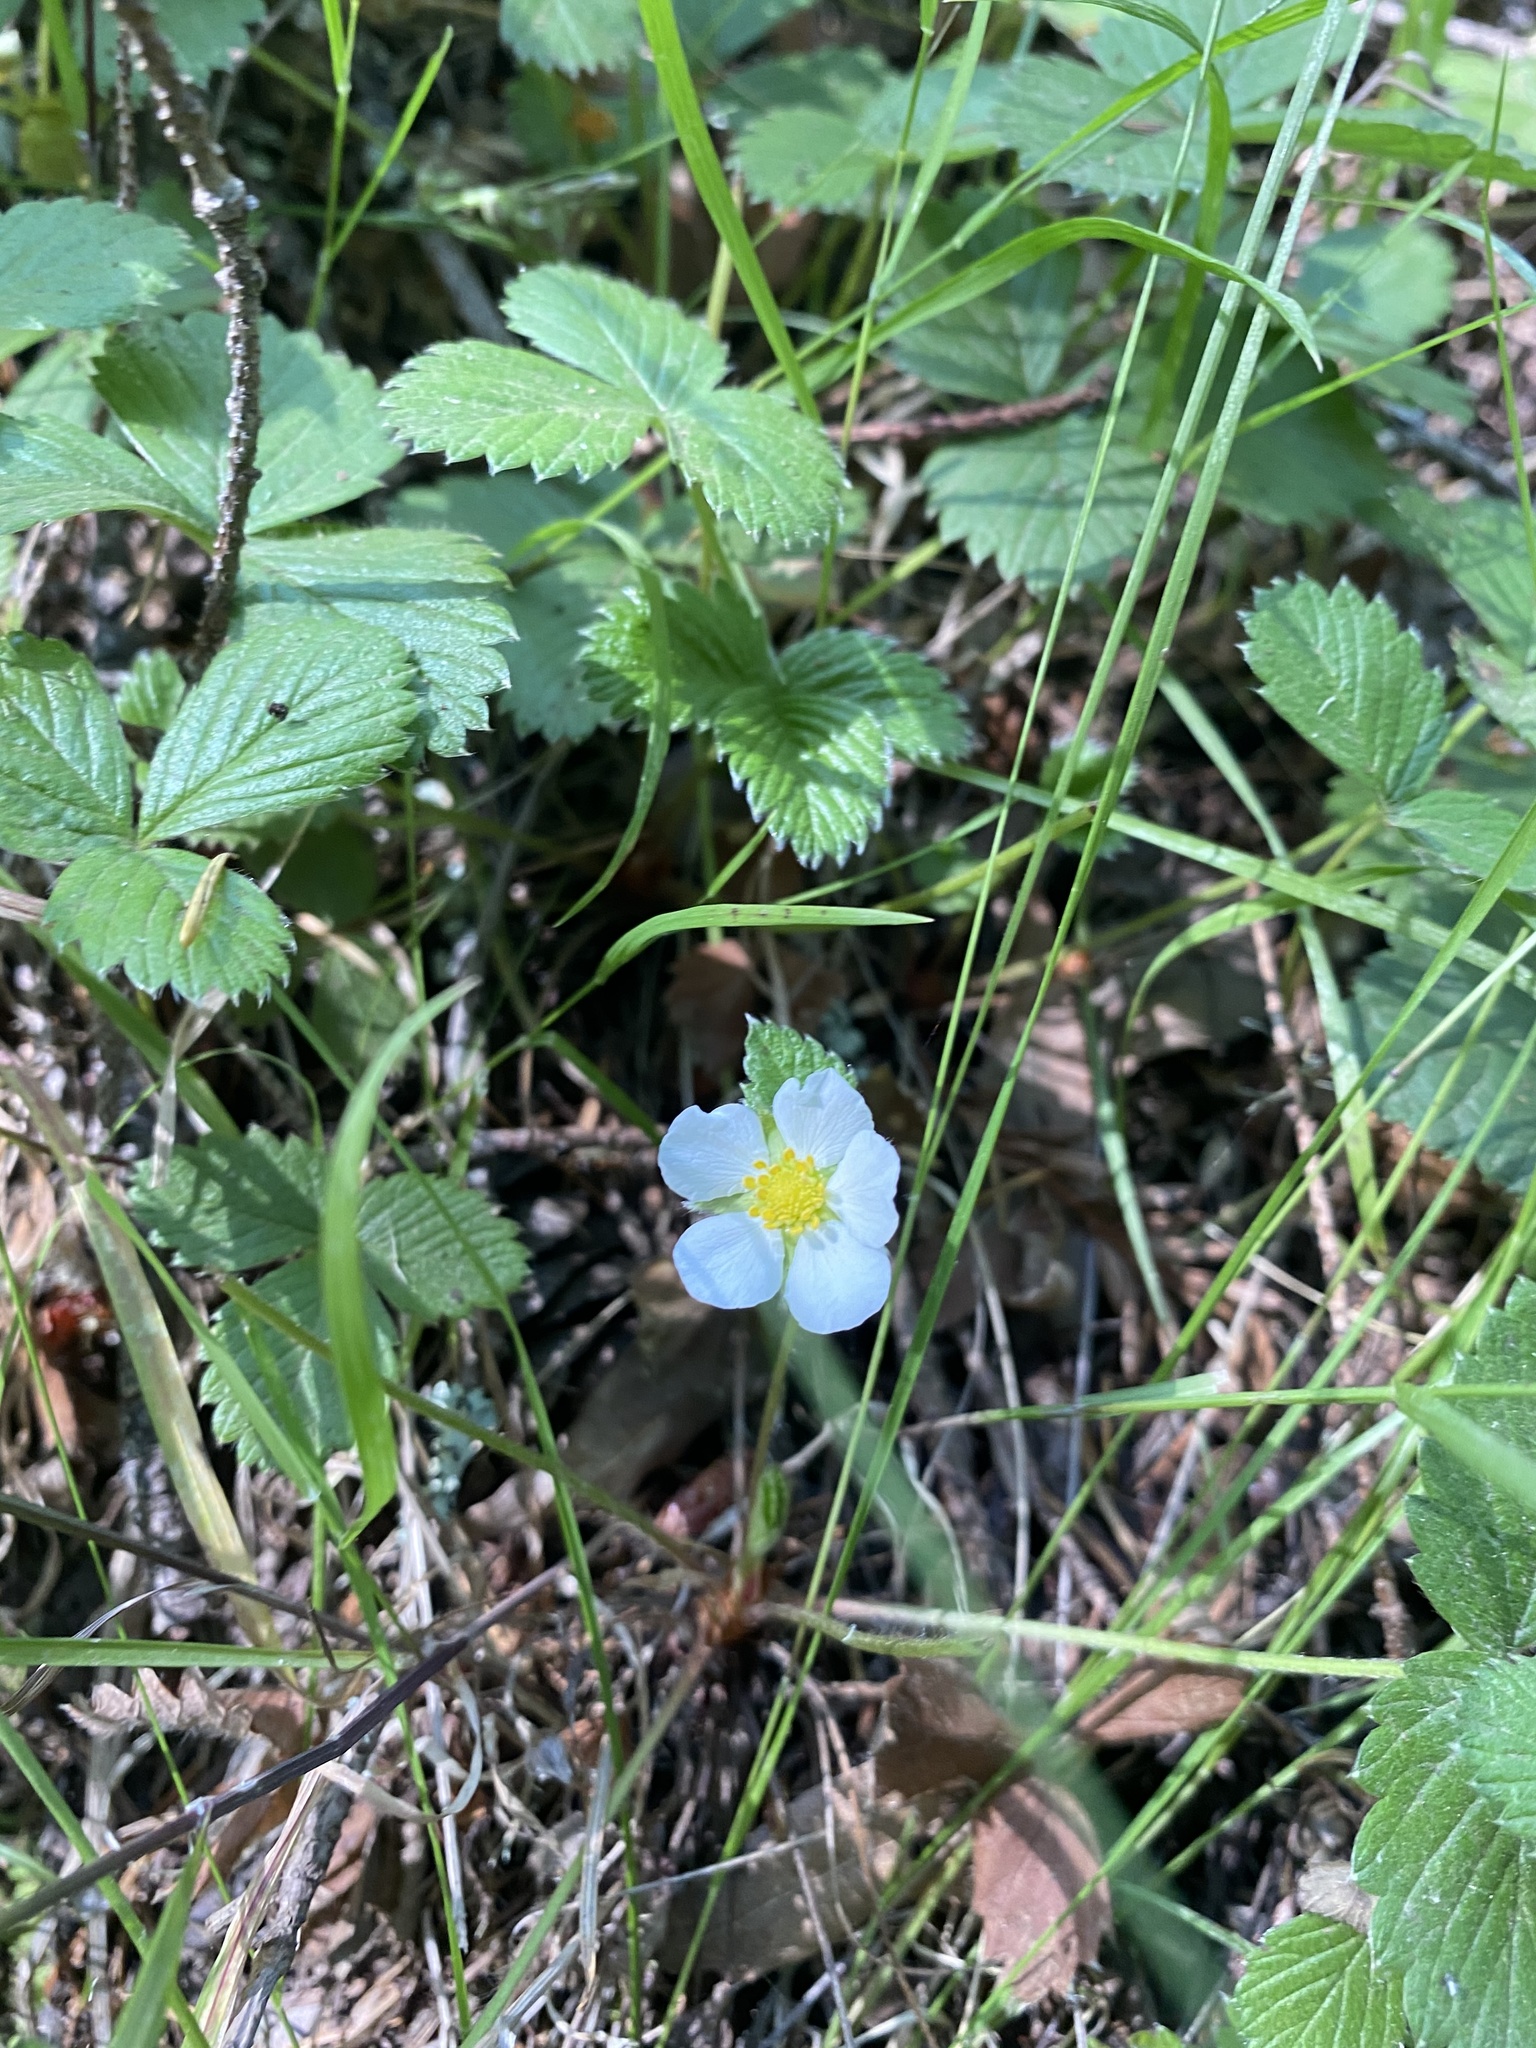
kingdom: Plantae
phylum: Tracheophyta
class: Magnoliopsida
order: Rosales
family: Rosaceae
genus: Fragaria
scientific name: Fragaria vesca
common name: Wild strawberry
